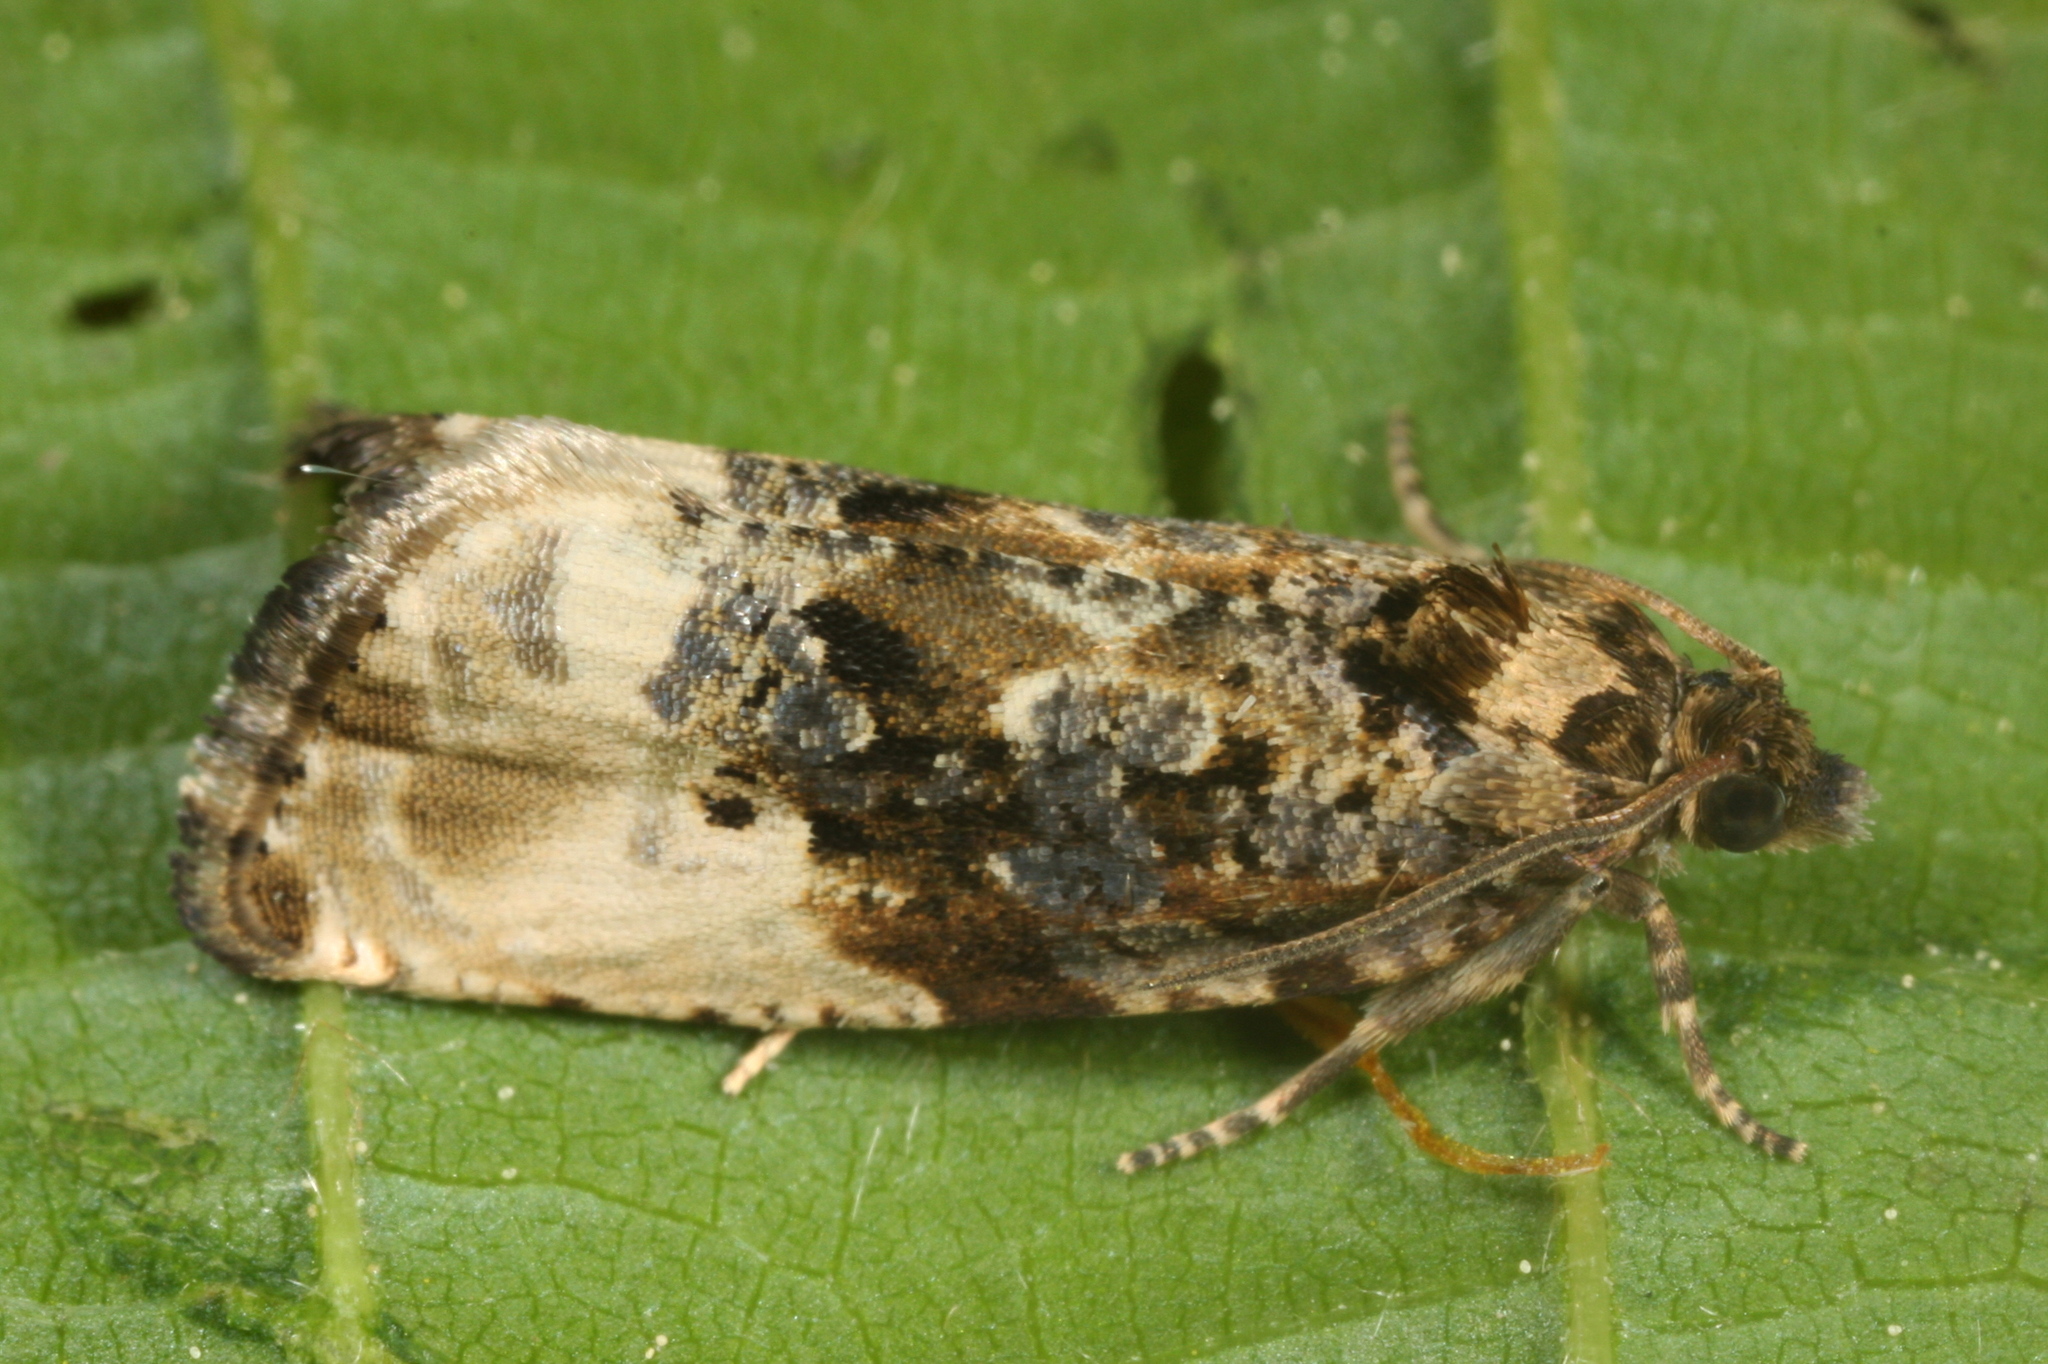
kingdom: Animalia
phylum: Arthropoda
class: Insecta
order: Lepidoptera
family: Tortricidae
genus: Hedya
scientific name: Hedya nubiferana
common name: Marbled orchard tortrix
